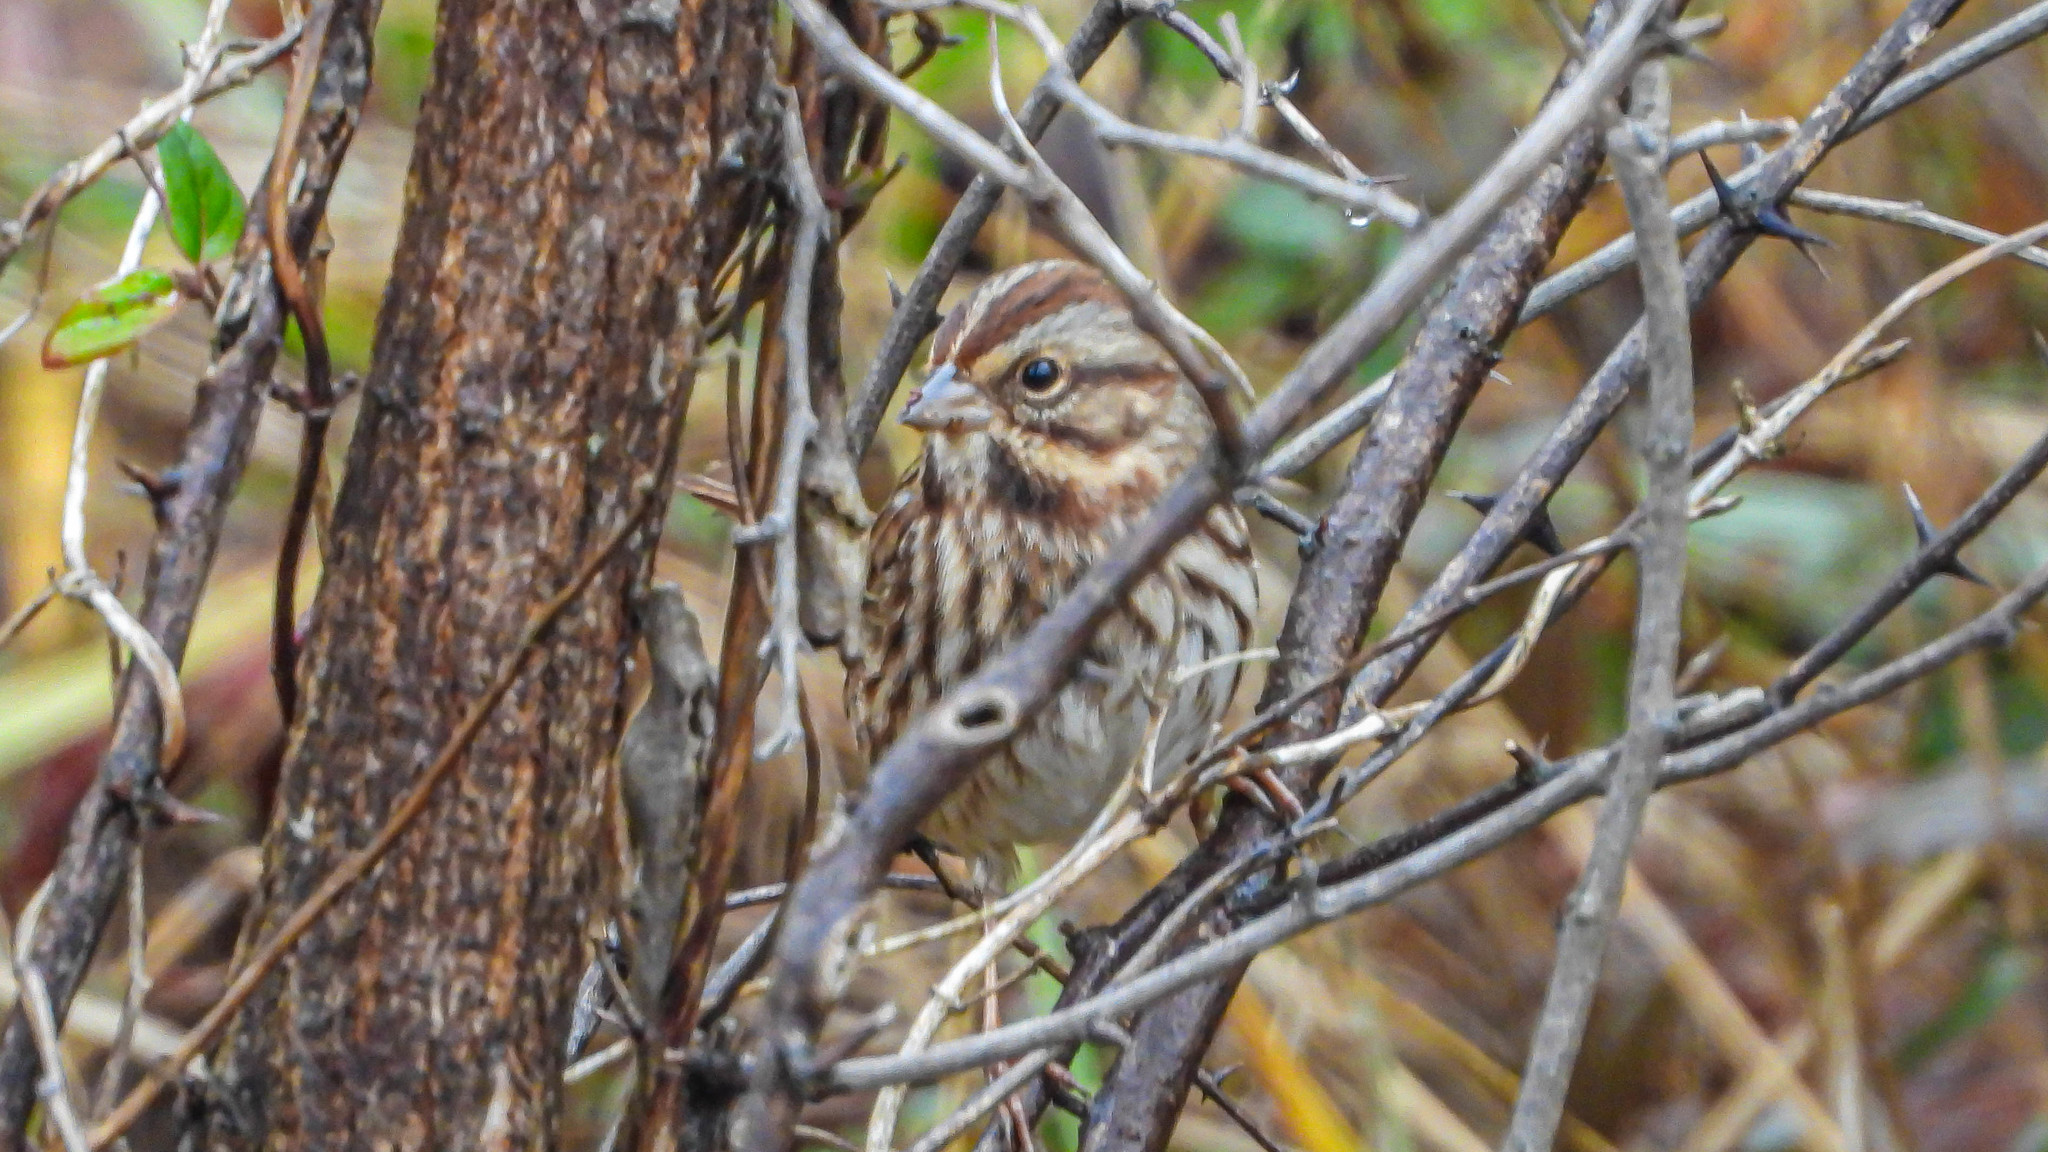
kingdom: Animalia
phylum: Chordata
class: Aves
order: Passeriformes
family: Passerellidae
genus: Melospiza
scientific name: Melospiza melodia
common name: Song sparrow
